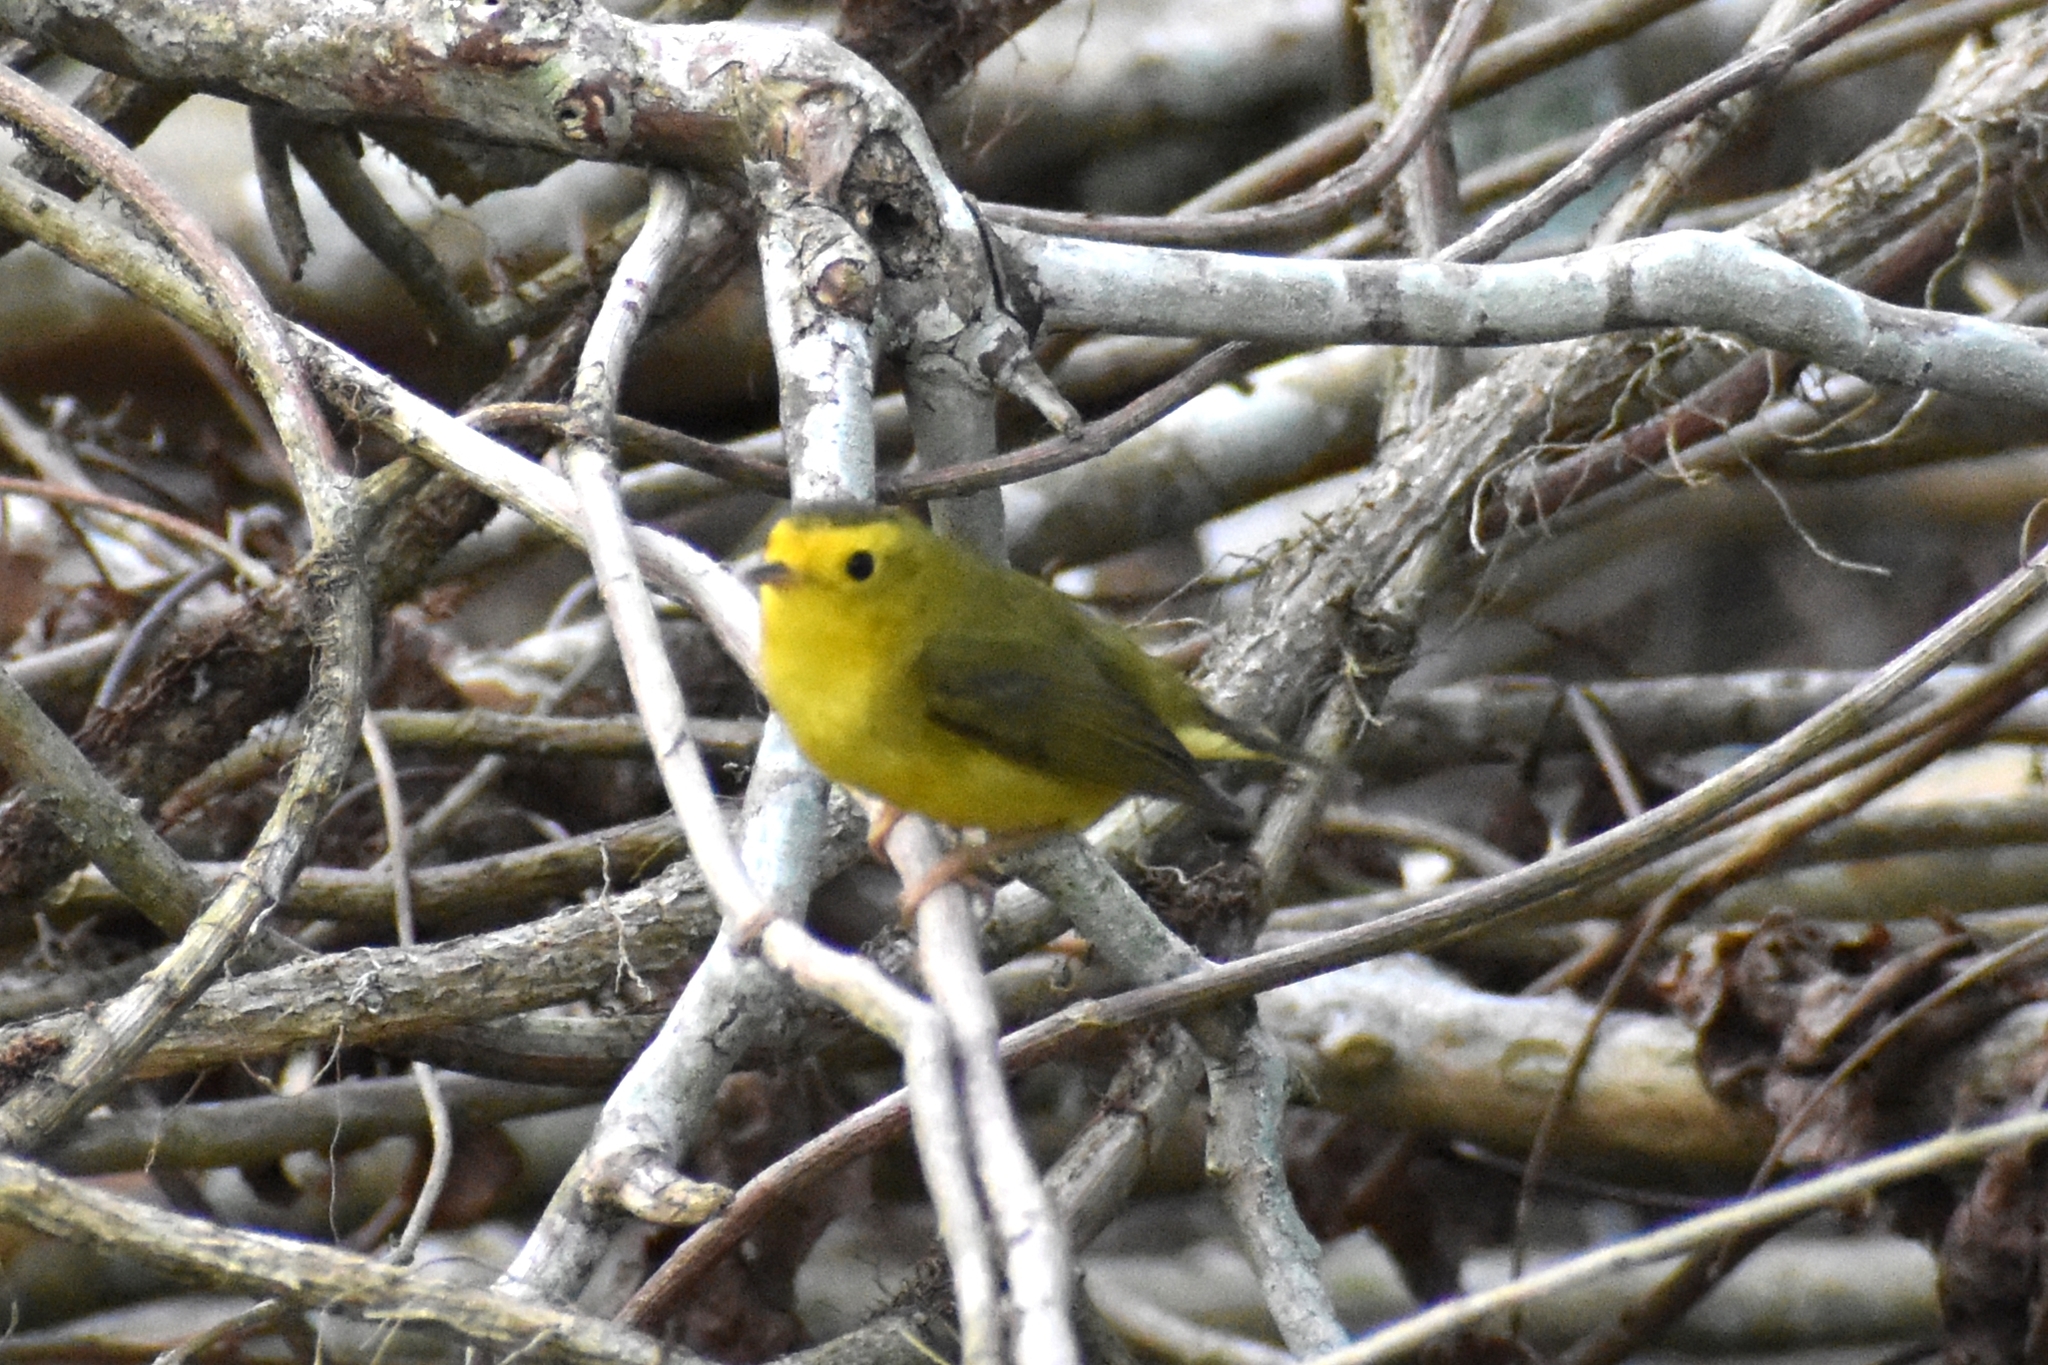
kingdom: Animalia
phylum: Chordata
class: Aves
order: Passeriformes
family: Parulidae
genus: Cardellina
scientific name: Cardellina pusilla
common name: Wilson's warbler
